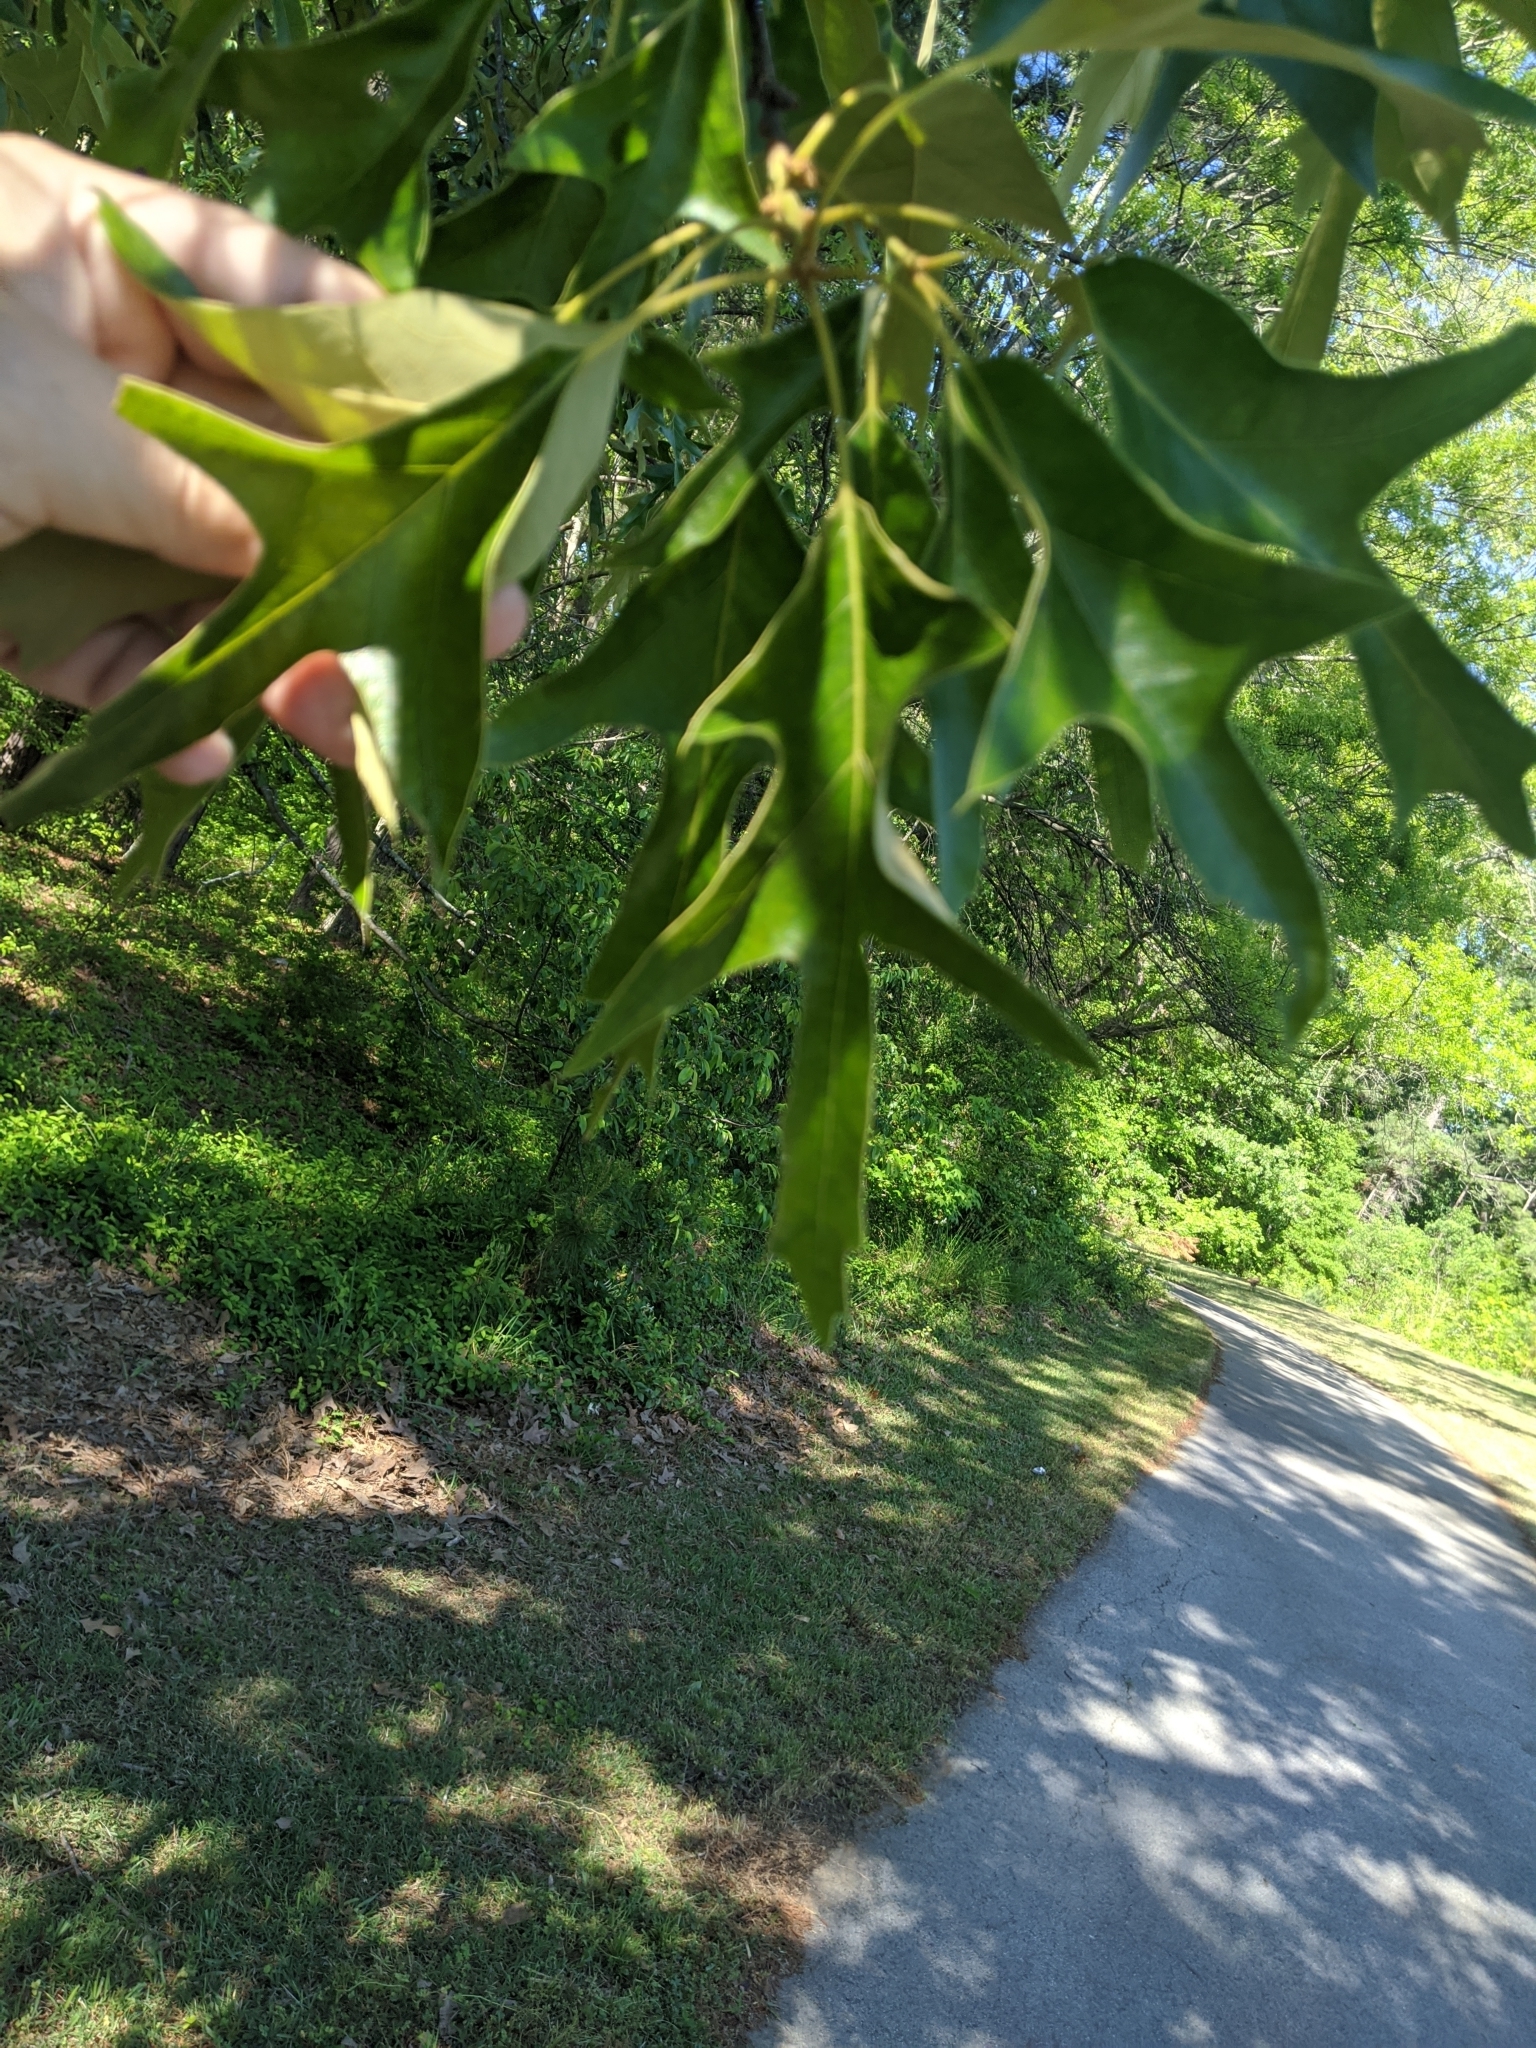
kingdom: Plantae
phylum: Tracheophyta
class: Magnoliopsida
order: Fagales
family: Fagaceae
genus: Quercus
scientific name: Quercus falcata
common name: Southern red oak
